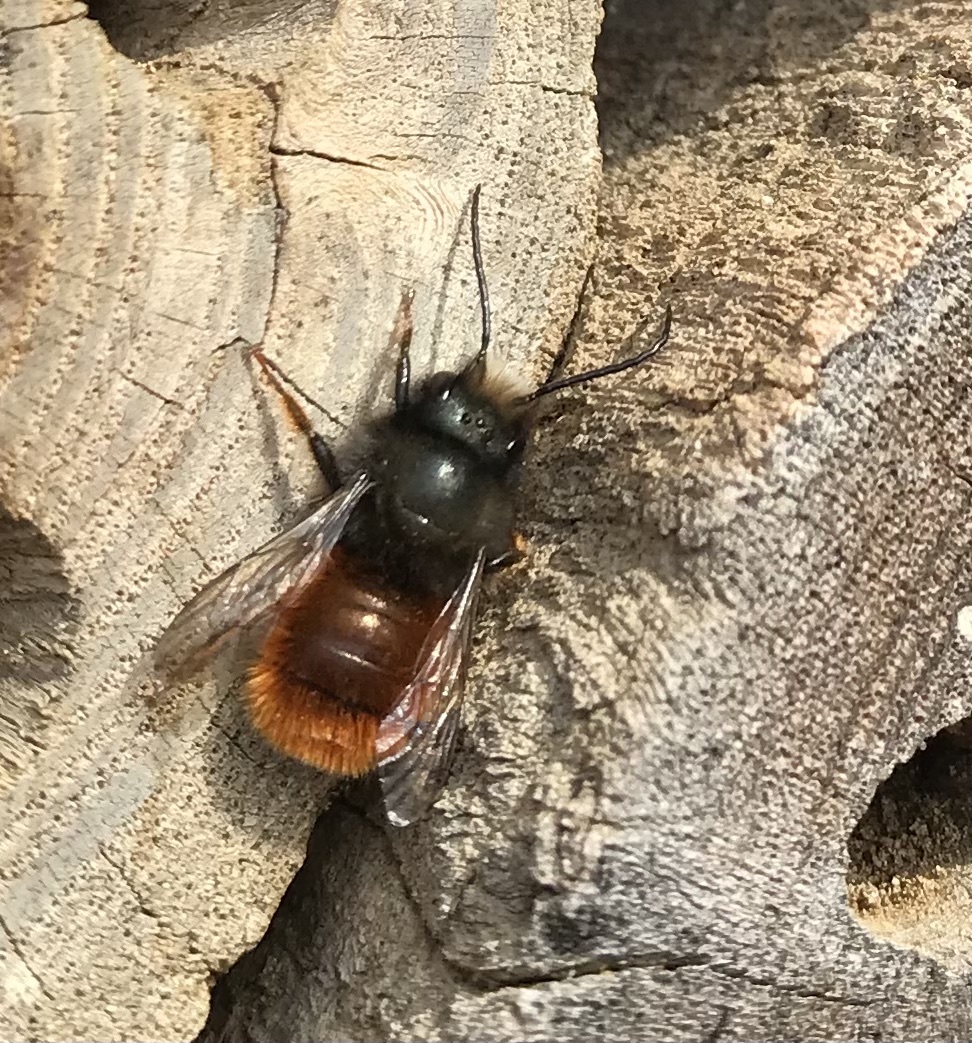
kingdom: Animalia
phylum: Arthropoda
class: Insecta
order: Hymenoptera
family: Megachilidae
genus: Osmia
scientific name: Osmia cornuta
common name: Mason bee
